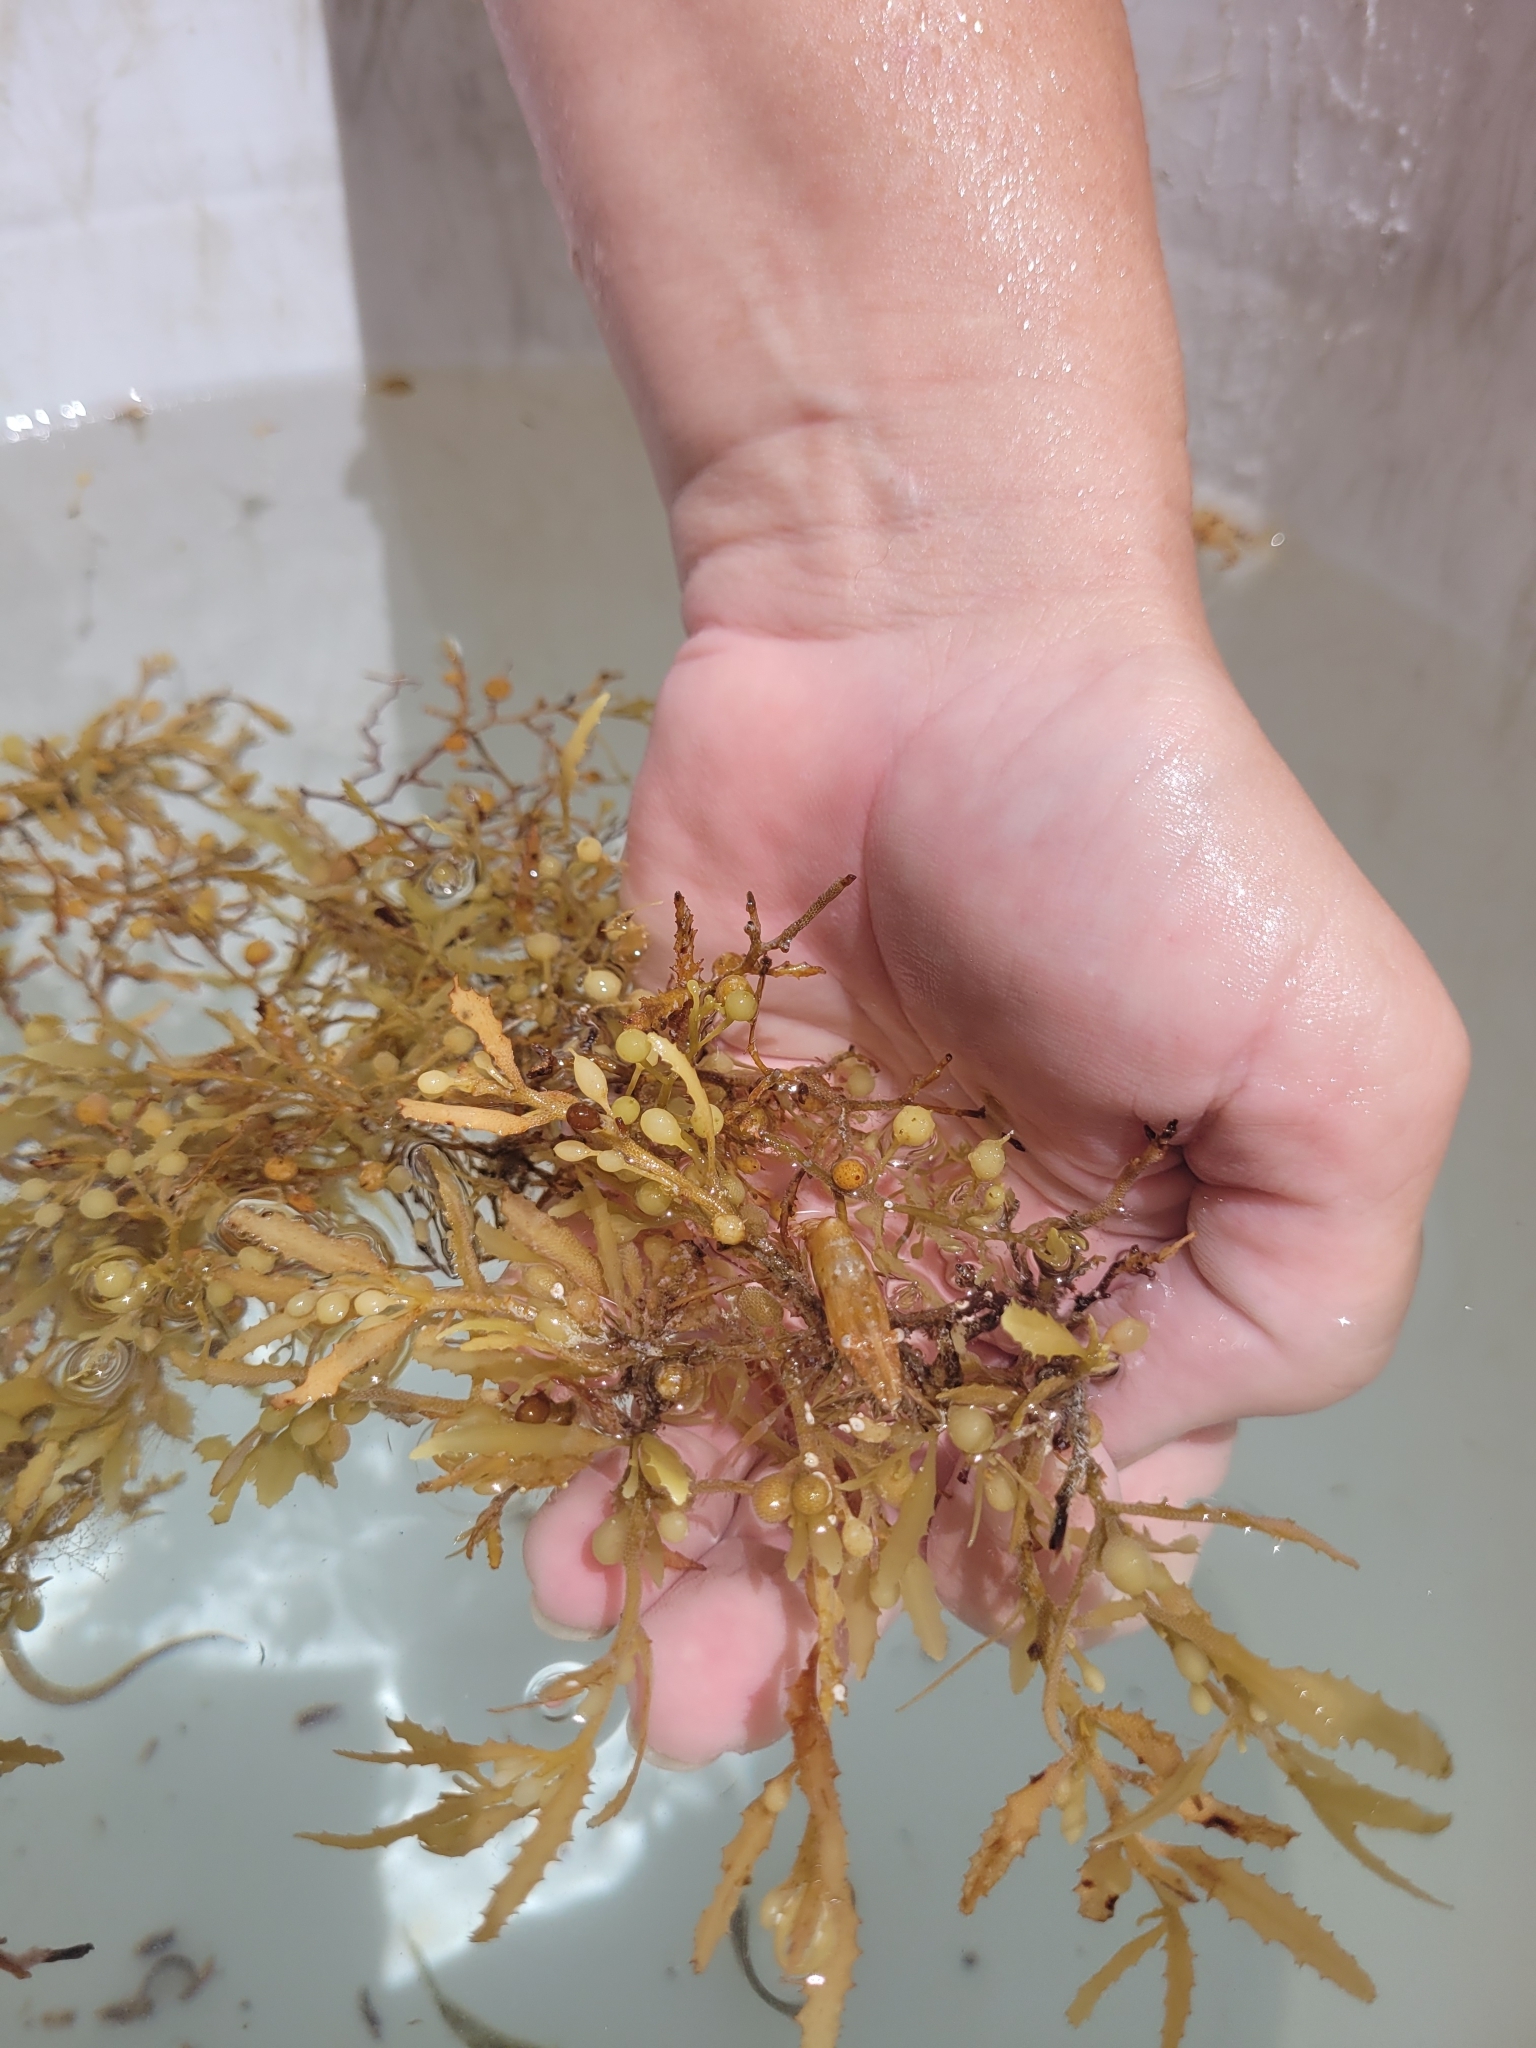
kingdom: Chromista
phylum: Ochrophyta
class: Phaeophyceae
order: Fucales
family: Sargassaceae
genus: Sargassum
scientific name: Sargassum fluitans
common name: Sargassum seaweed
